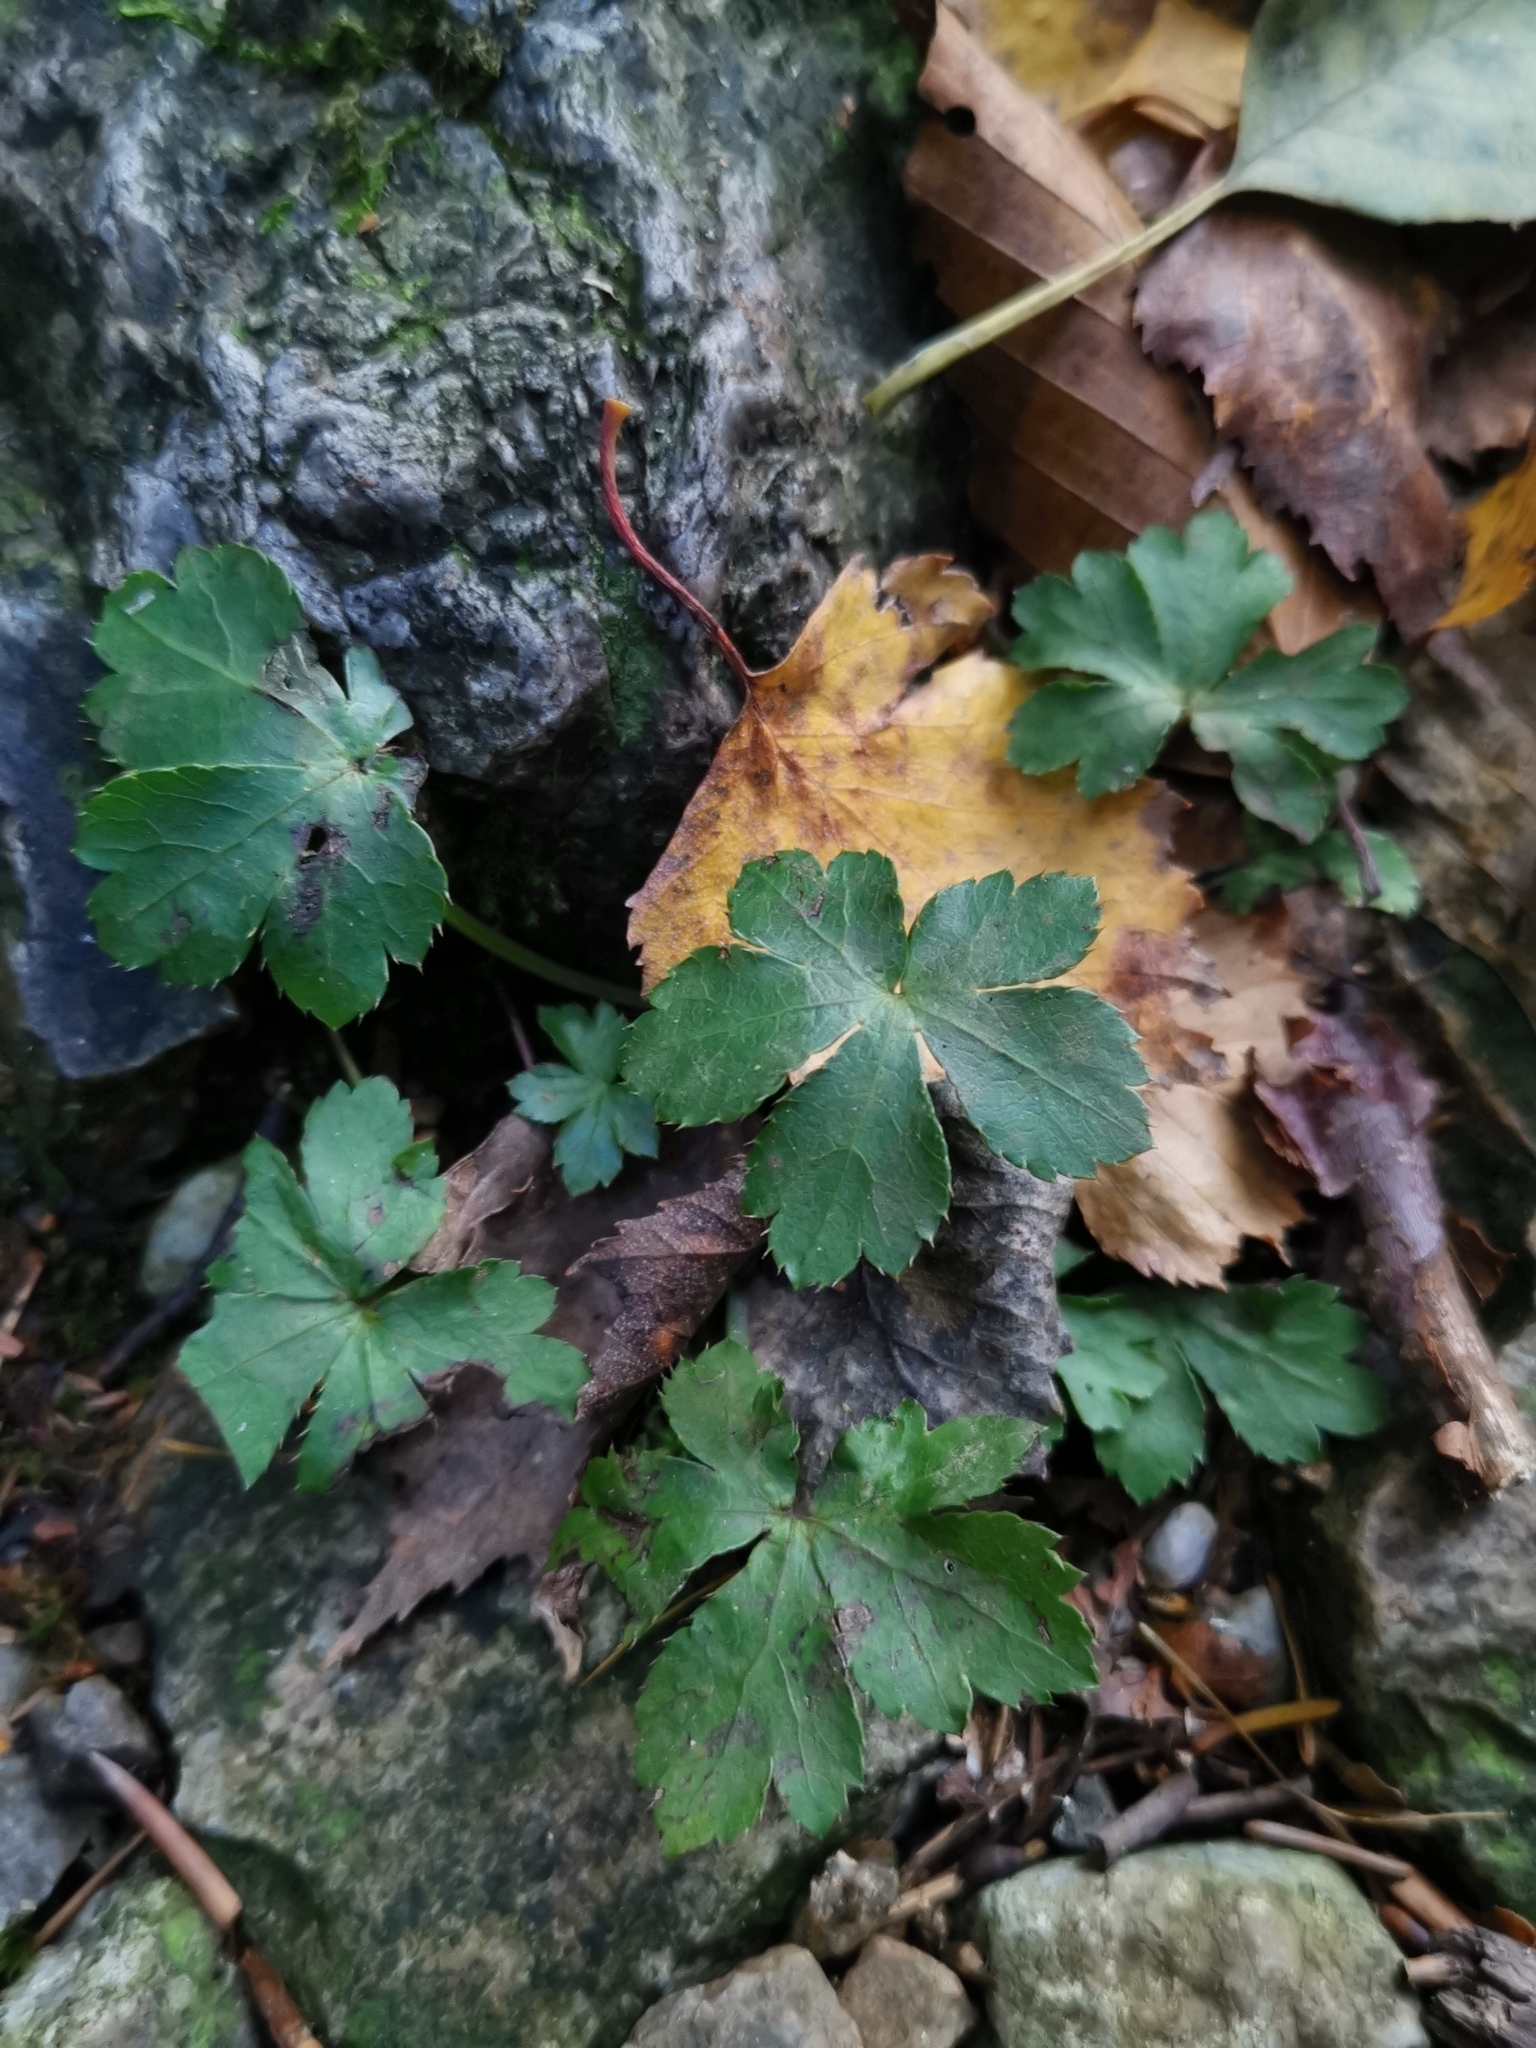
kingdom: Plantae
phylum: Tracheophyta
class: Magnoliopsida
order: Apiales
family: Apiaceae
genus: Sanicula
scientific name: Sanicula europaea
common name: Sanicle
